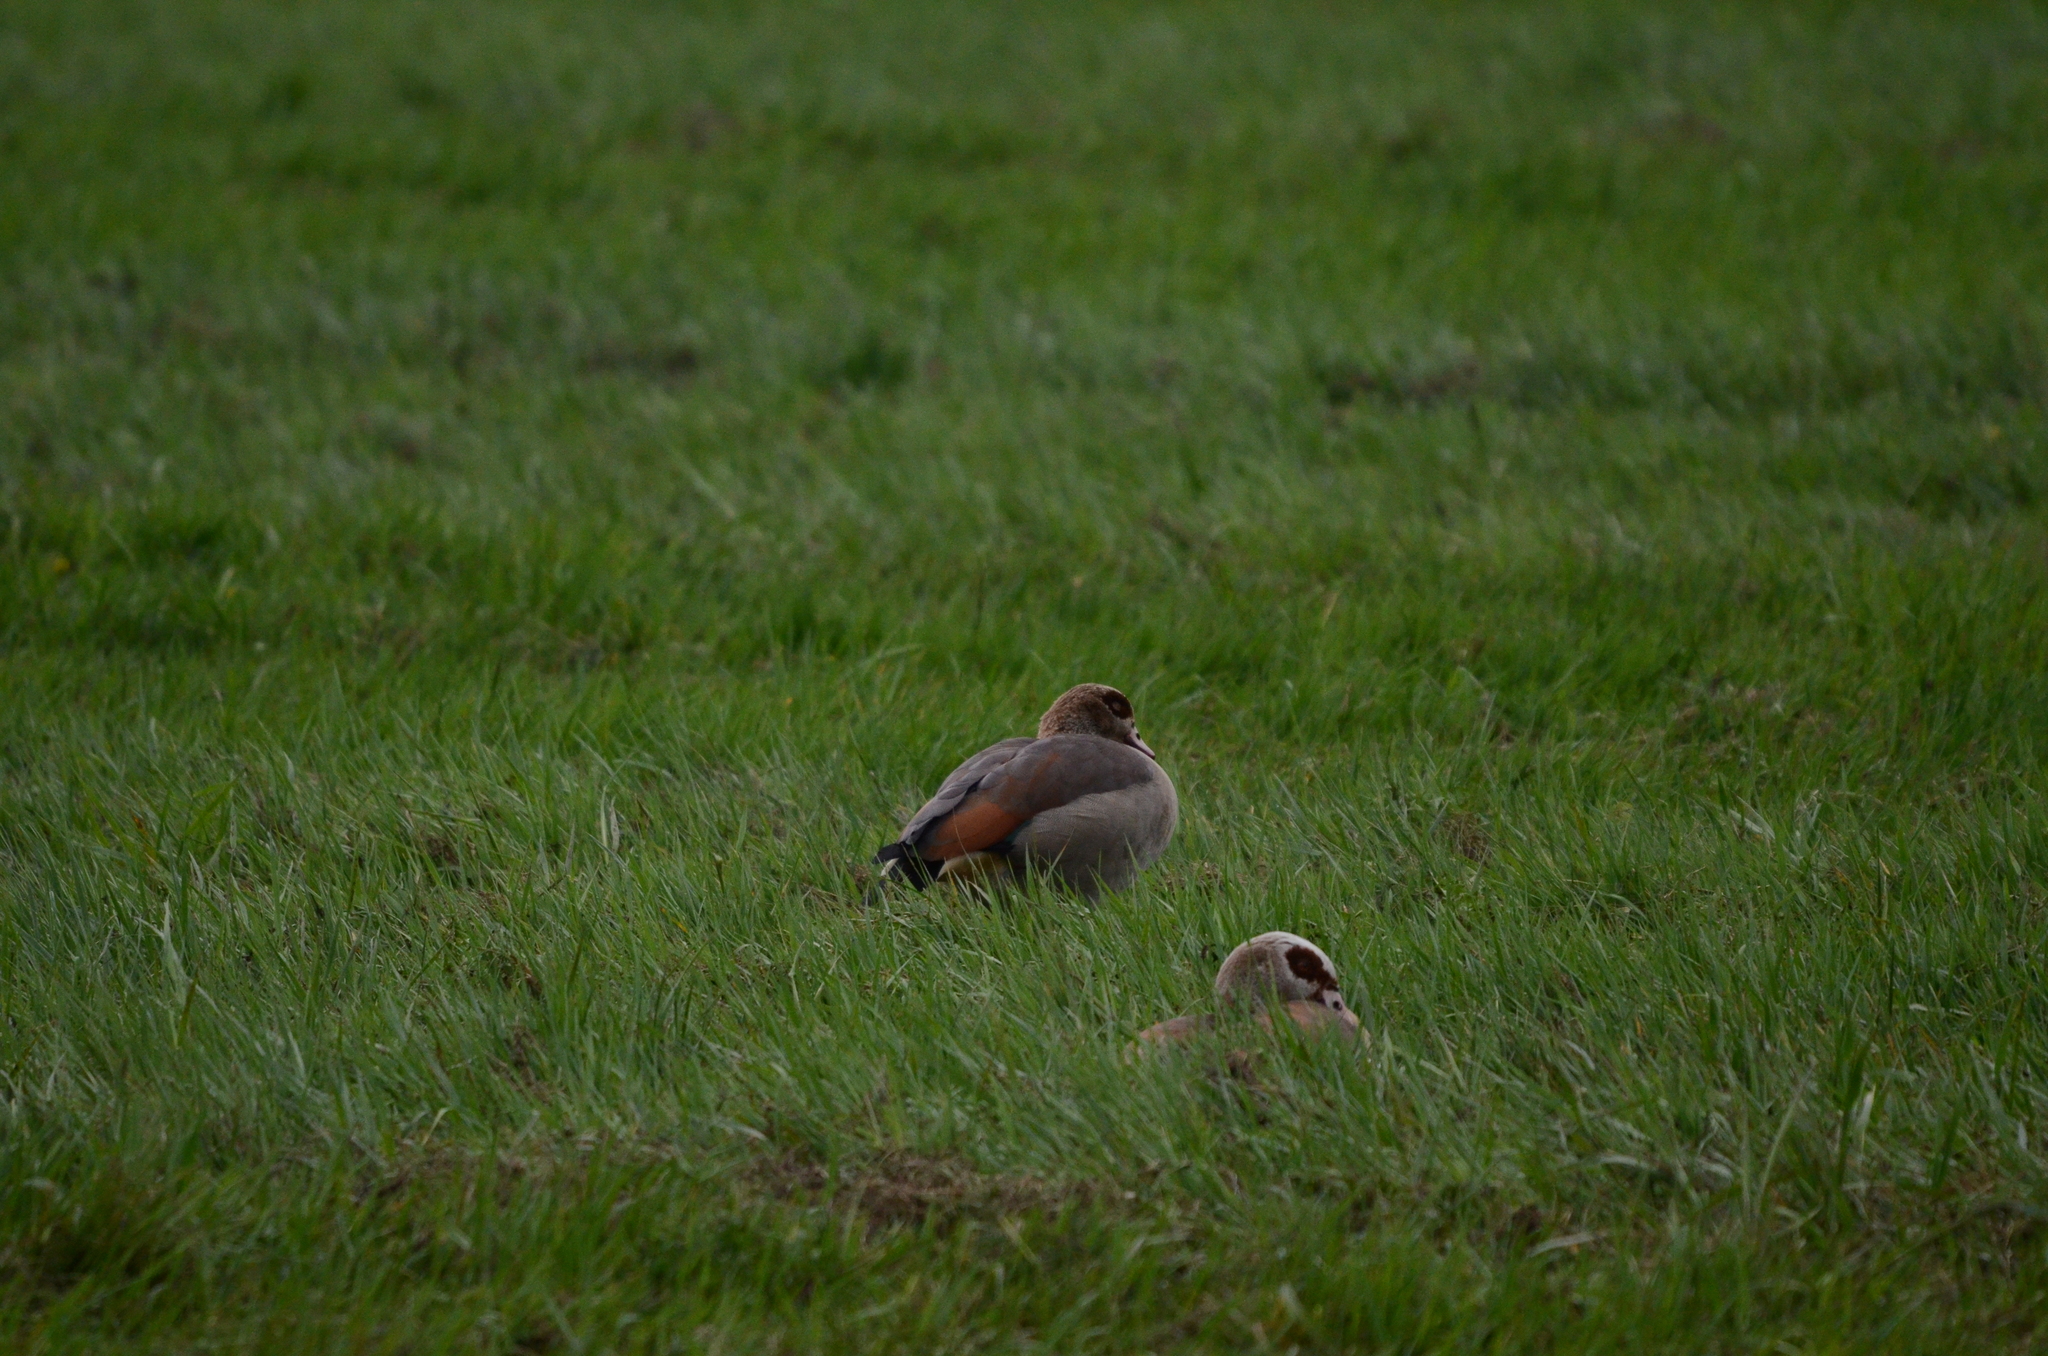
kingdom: Animalia
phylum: Chordata
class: Aves
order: Anseriformes
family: Anatidae
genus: Alopochen
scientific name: Alopochen aegyptiaca
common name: Egyptian goose
